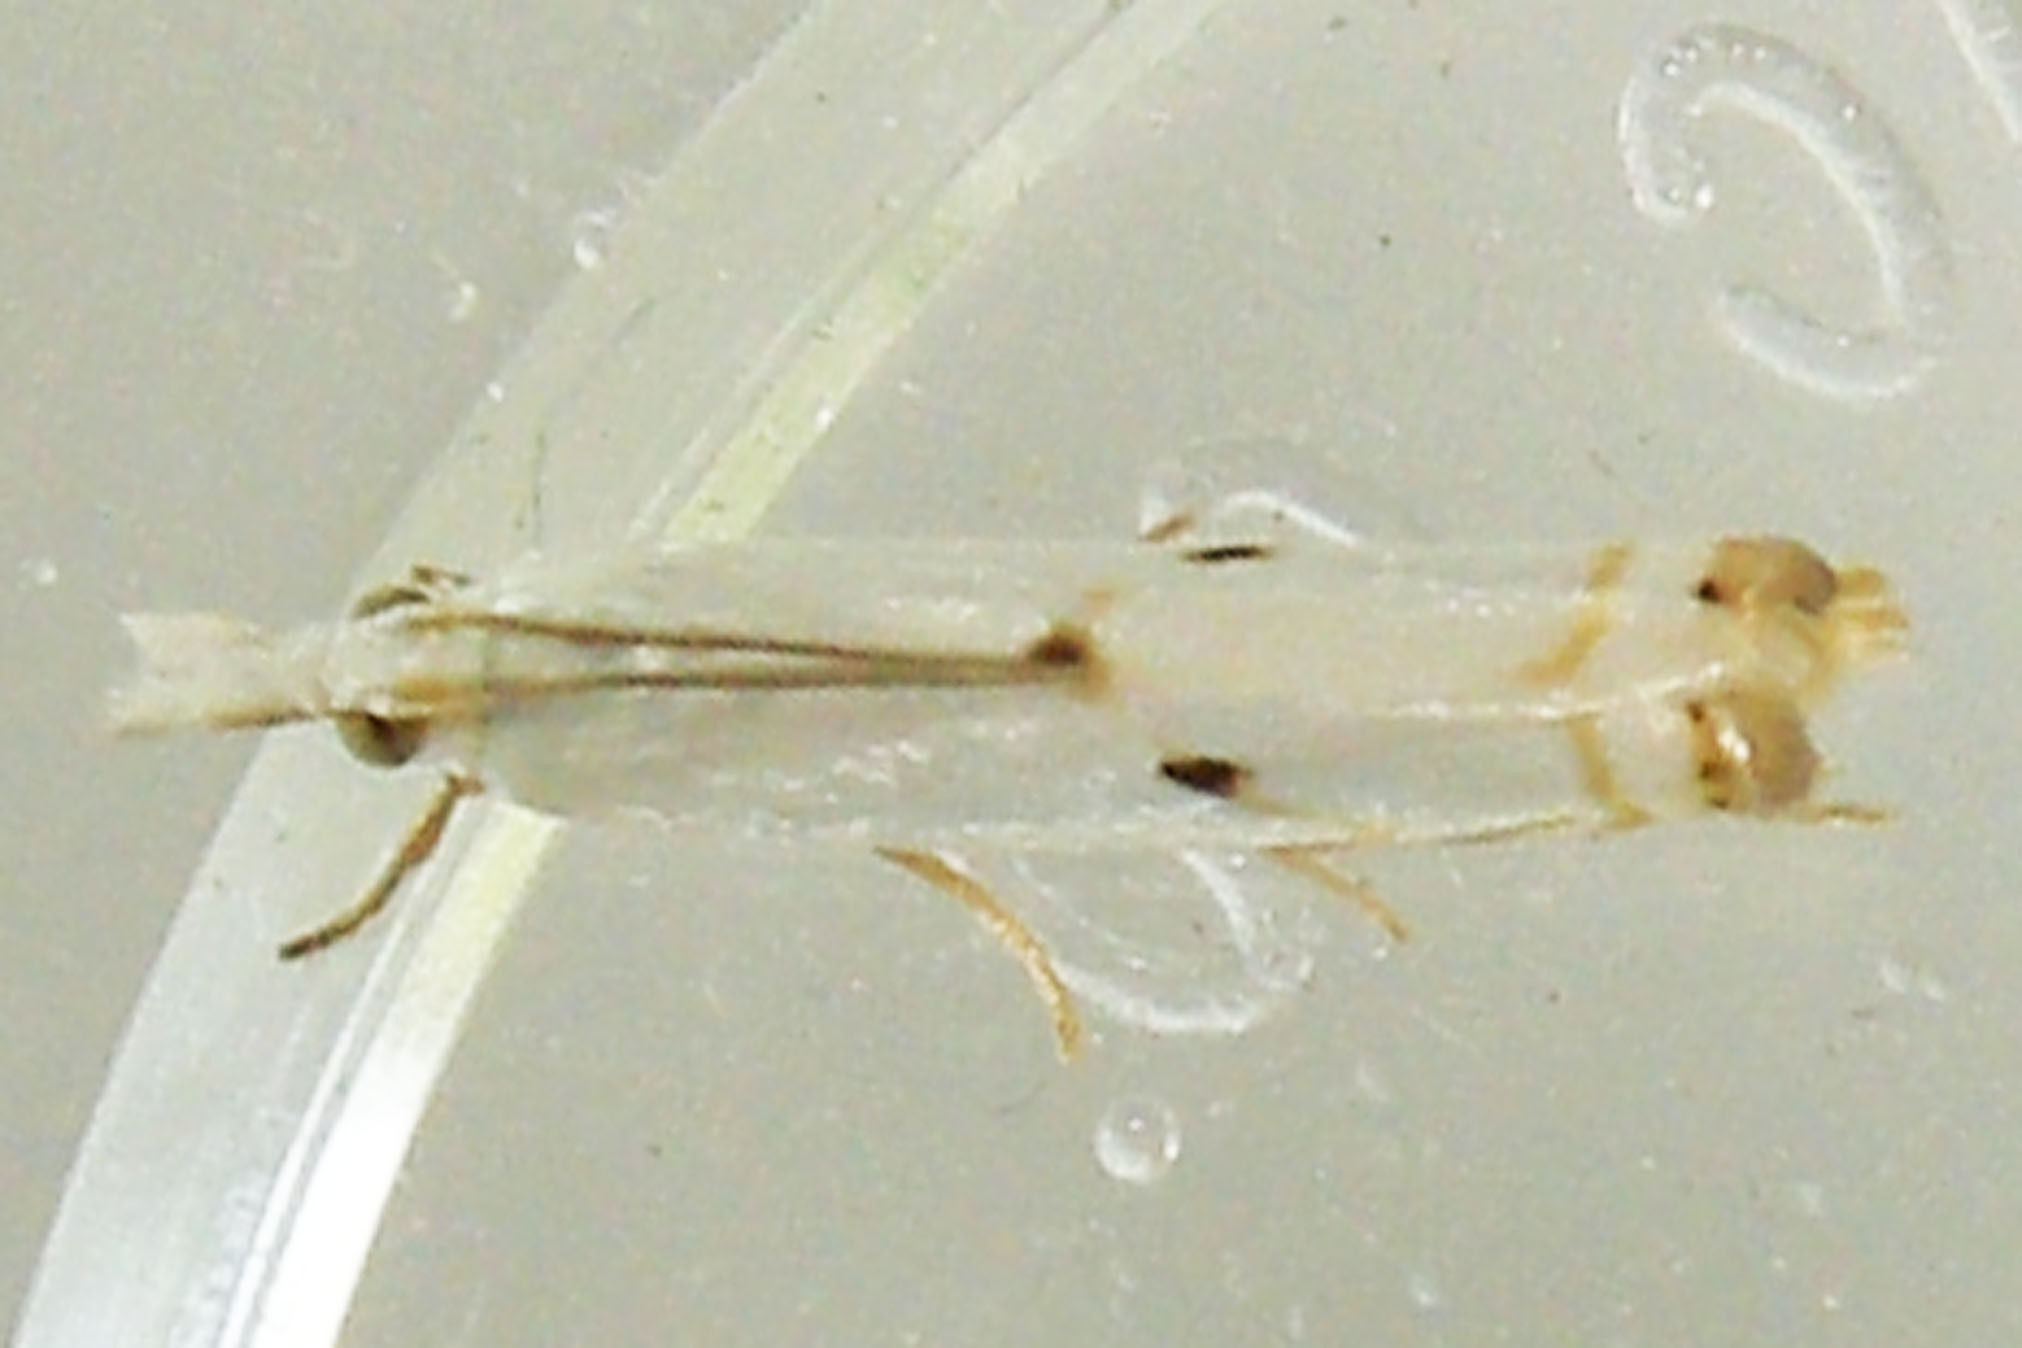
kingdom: Animalia
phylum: Arthropoda
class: Insecta
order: Lepidoptera
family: Crambidae
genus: Microcrambus
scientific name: Microcrambus biguttellus
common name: Gold-stripe grass-veneer moth
